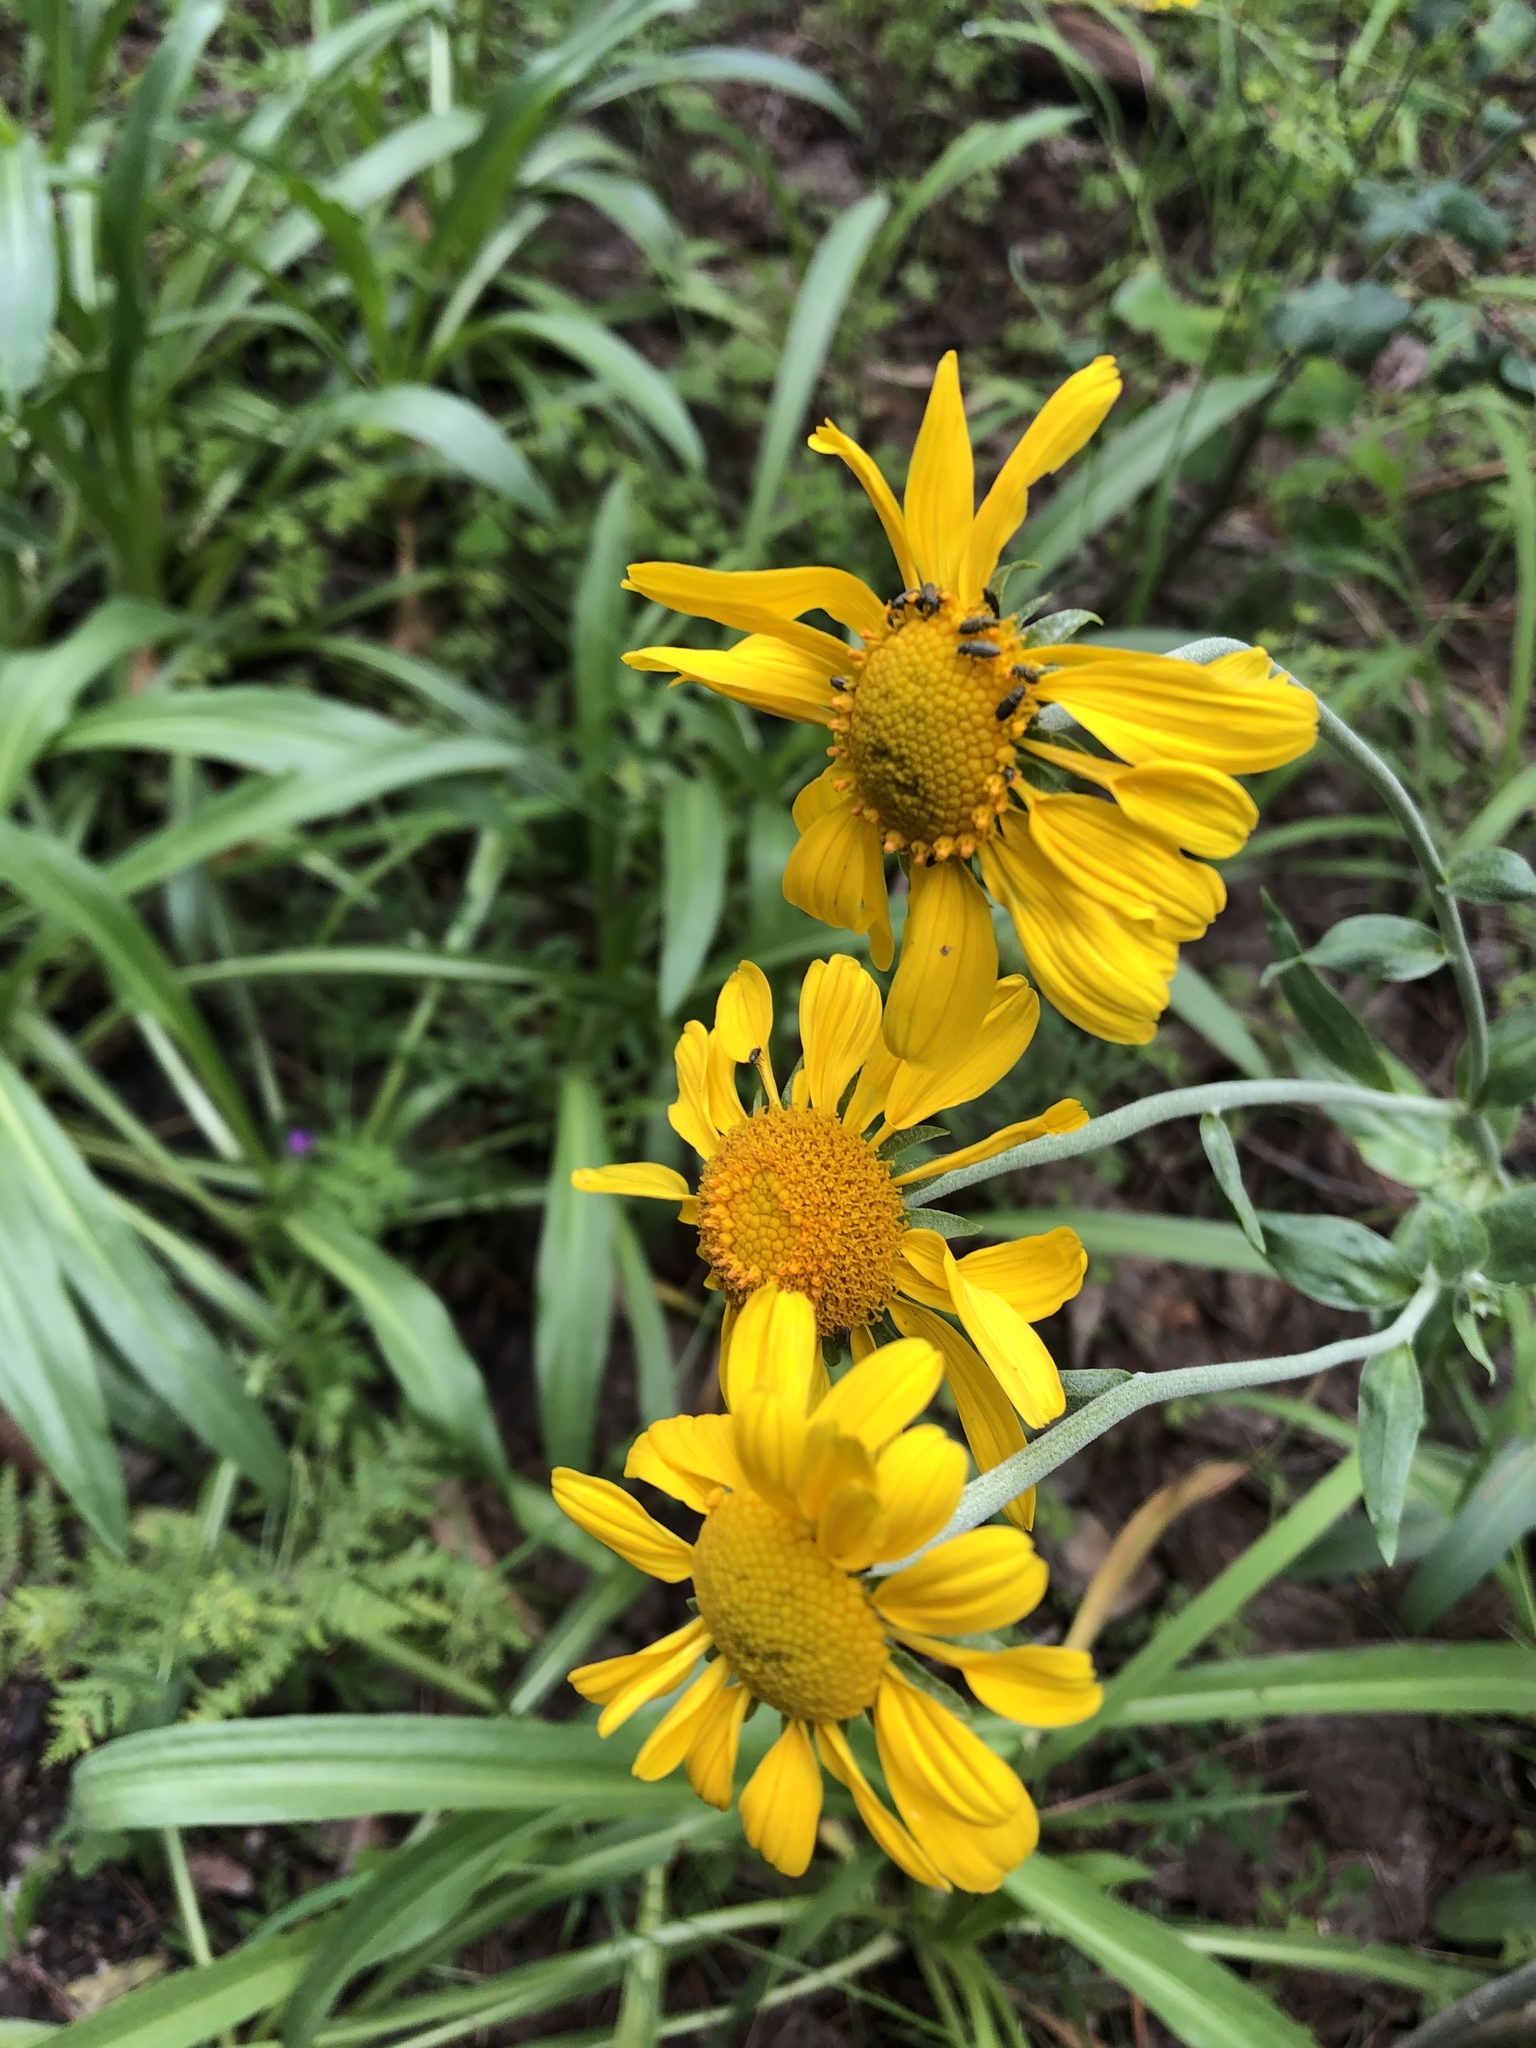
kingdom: Plantae
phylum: Tracheophyta
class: Magnoliopsida
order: Asterales
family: Asteraceae
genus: Hymenoxys
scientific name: Hymenoxys hoopesii
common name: Orange-sneezeweed
